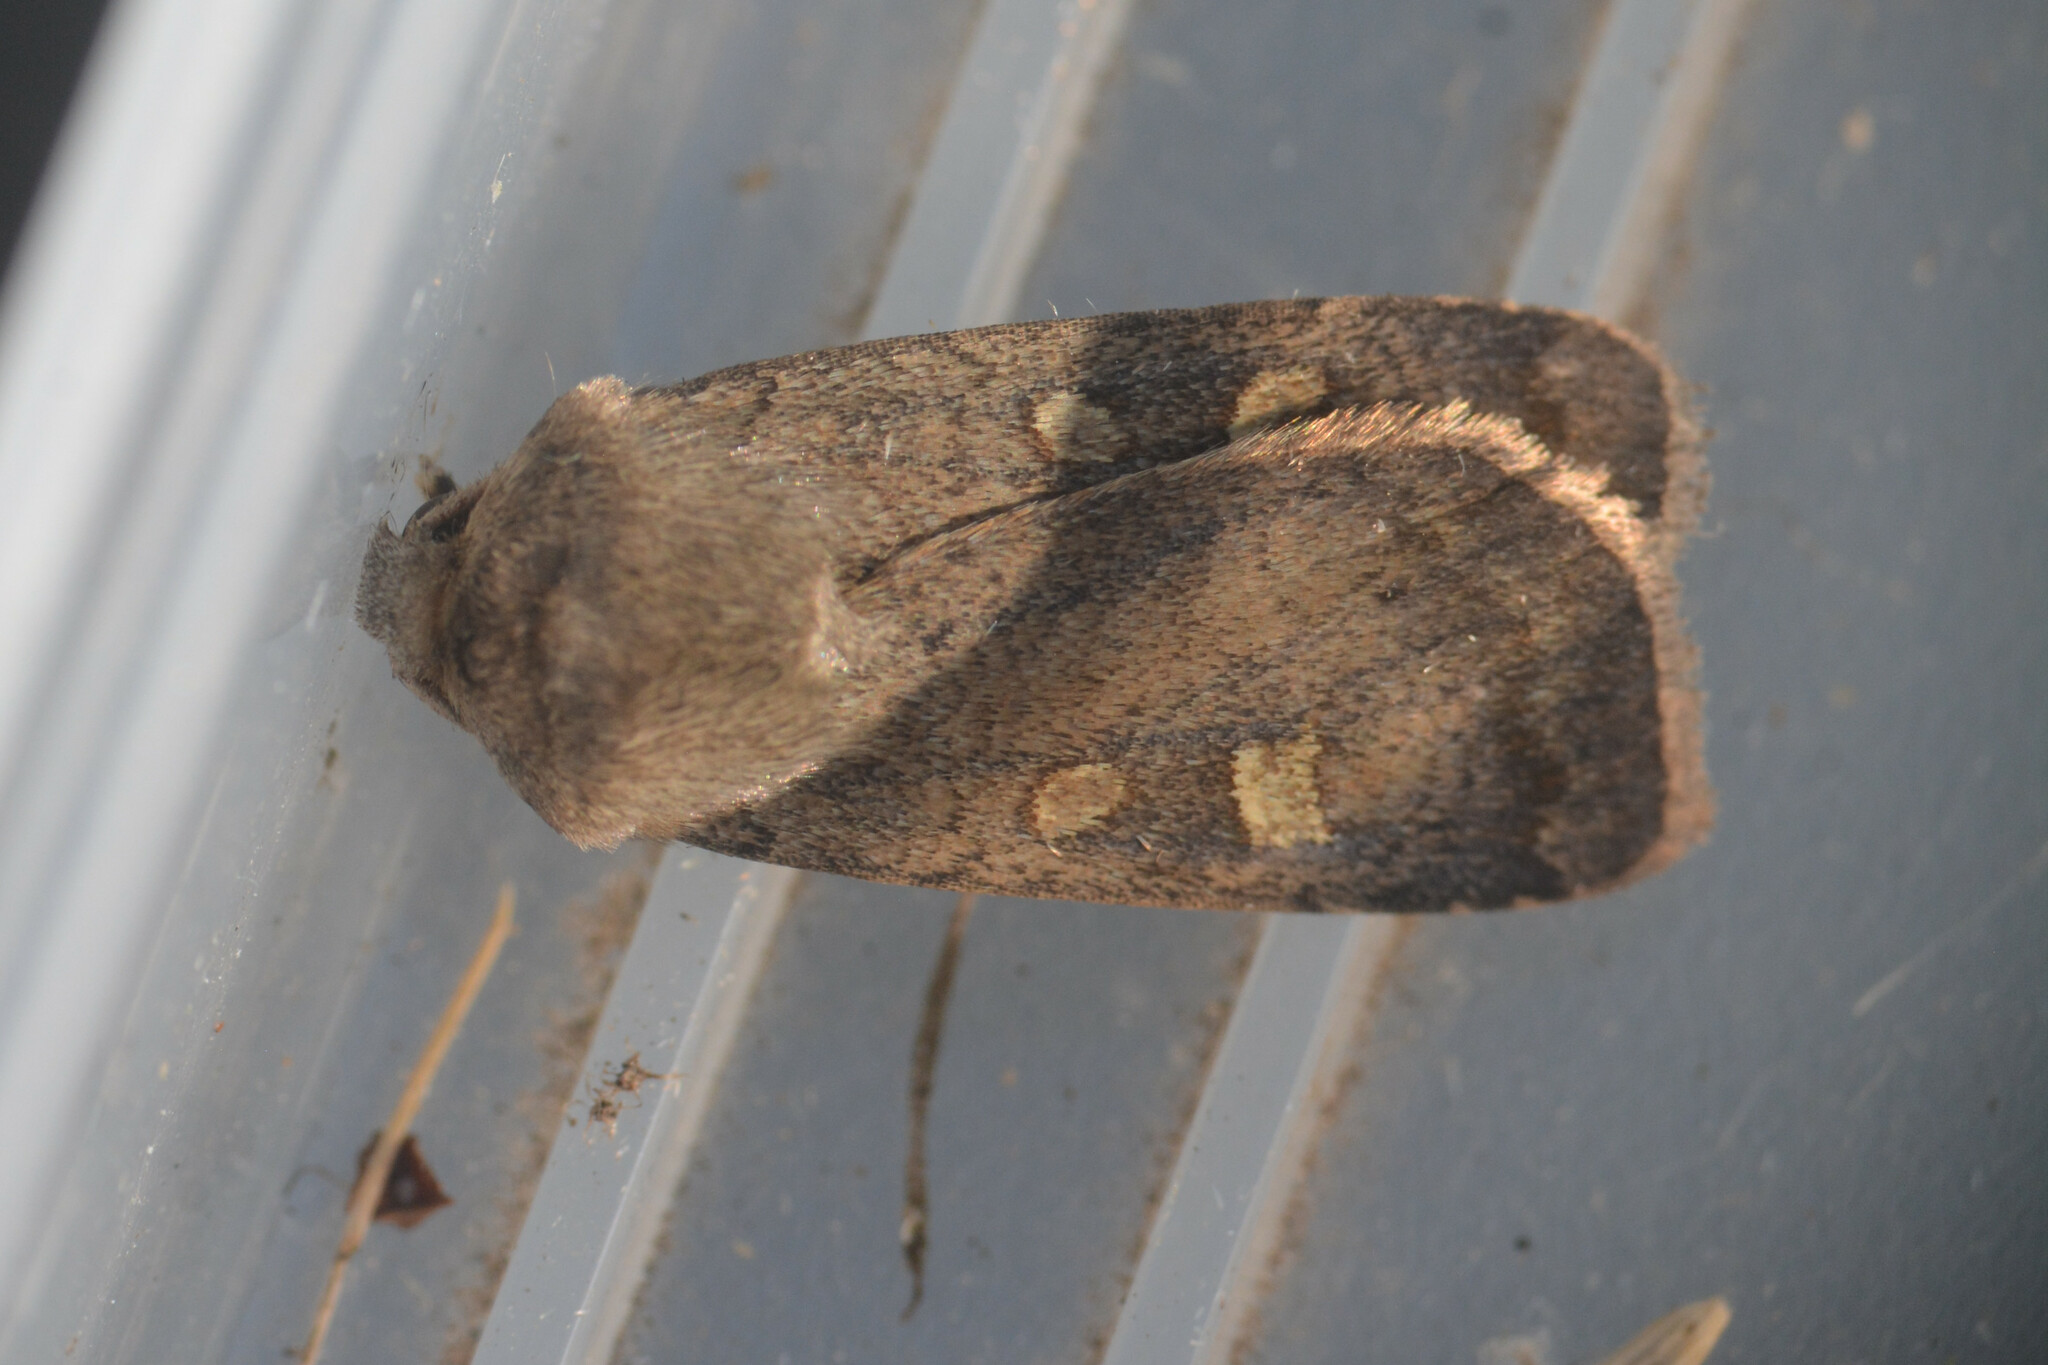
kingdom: Animalia
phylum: Arthropoda
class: Insecta
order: Lepidoptera
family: Noctuidae
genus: Xestia
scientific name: Xestia xanthographa
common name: Square-spot rustic
